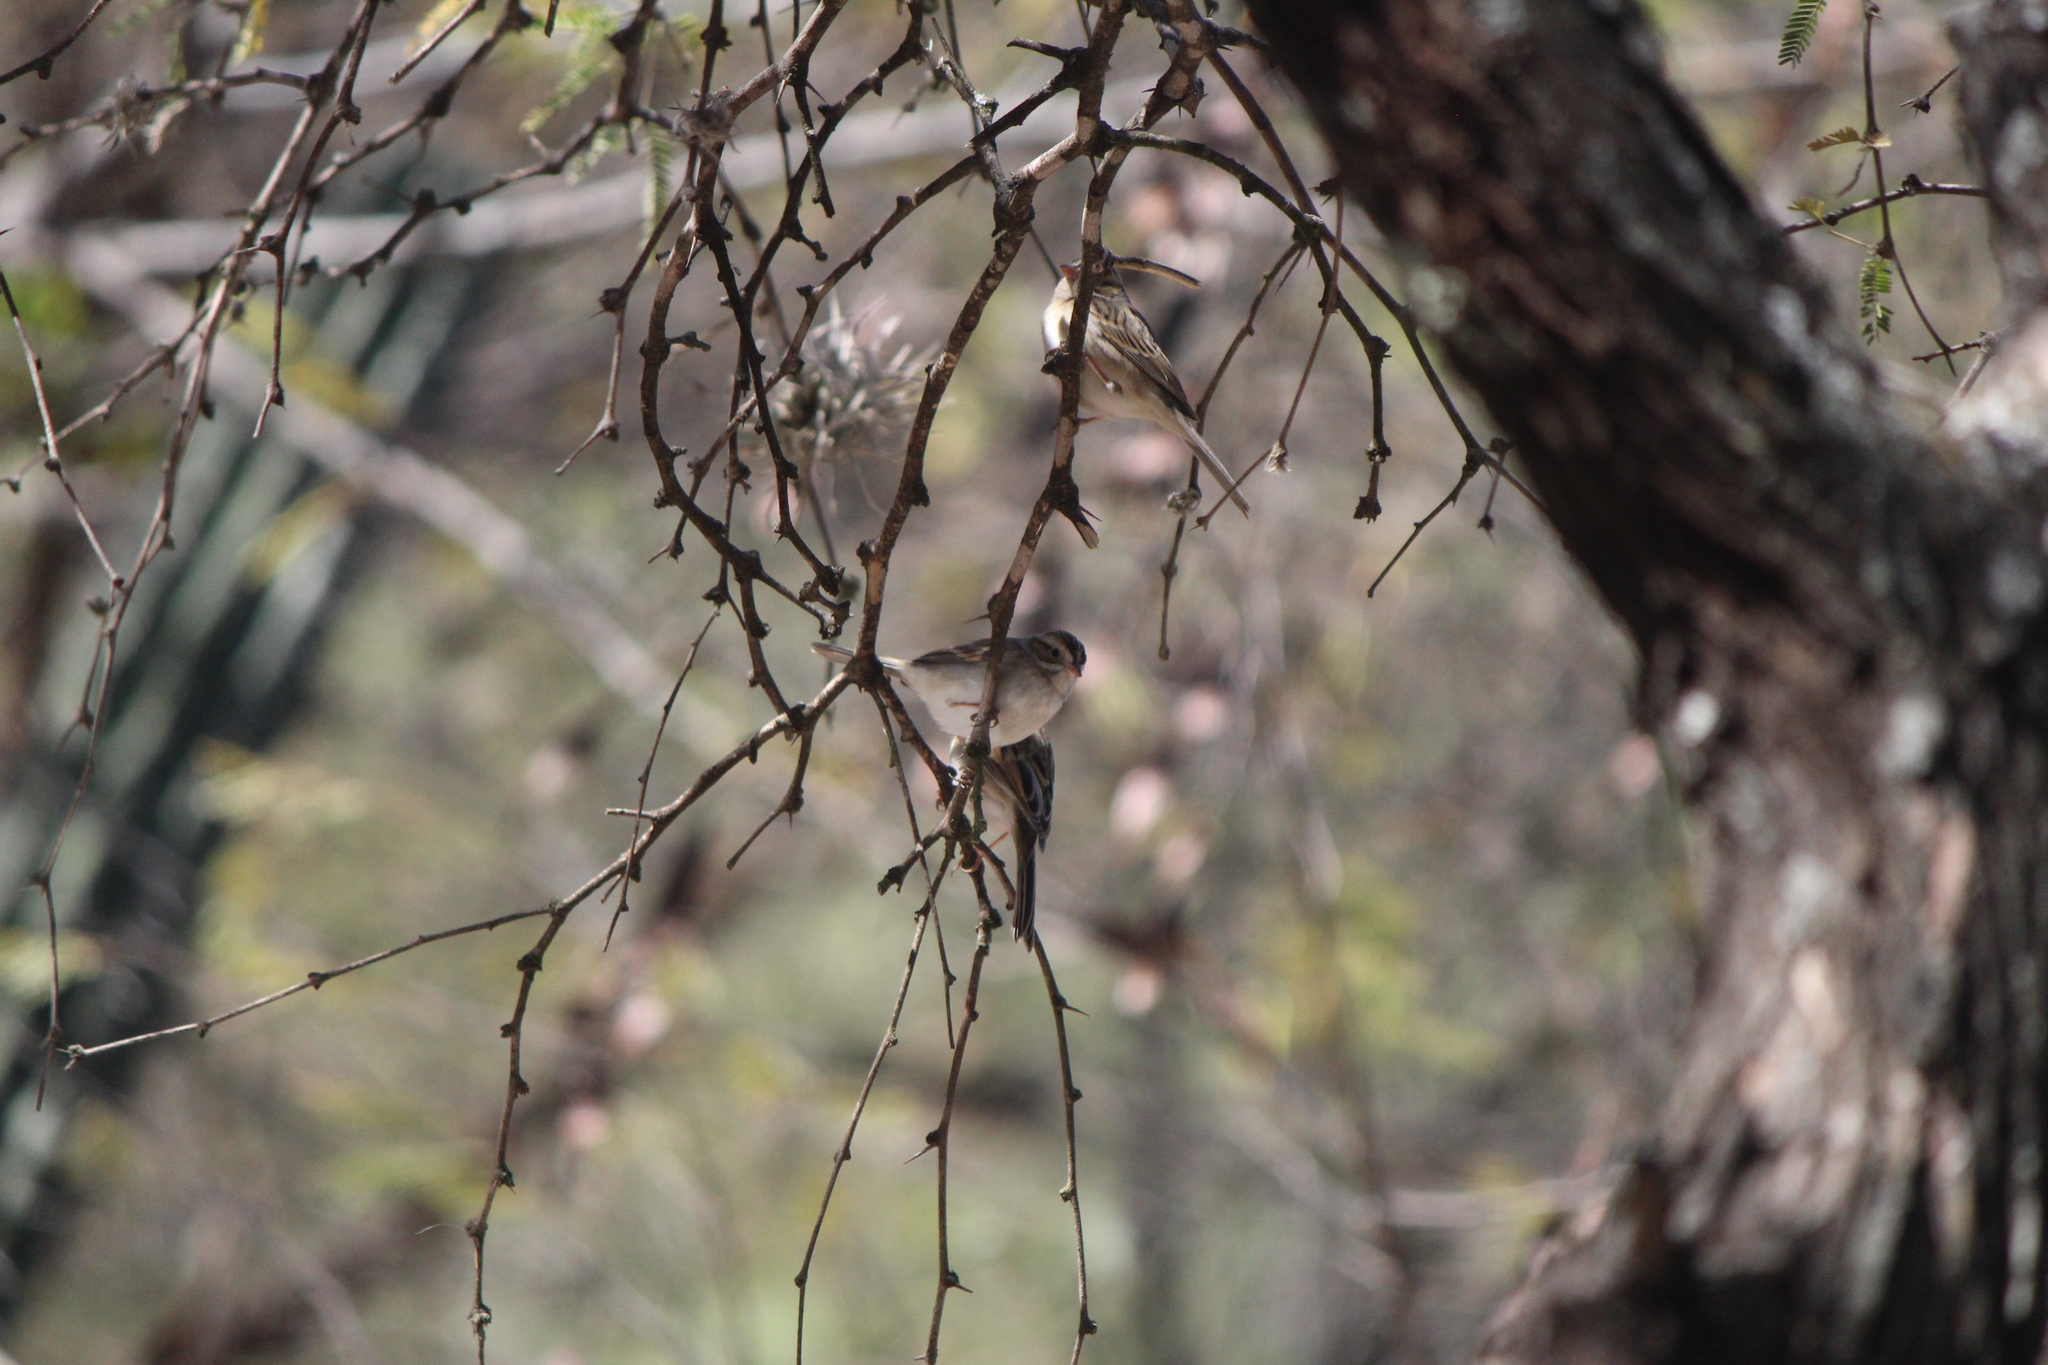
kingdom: Animalia
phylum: Chordata
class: Aves
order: Passeriformes
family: Passerellidae
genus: Spizella
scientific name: Spizella pallida
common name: Clay-colored sparrow
